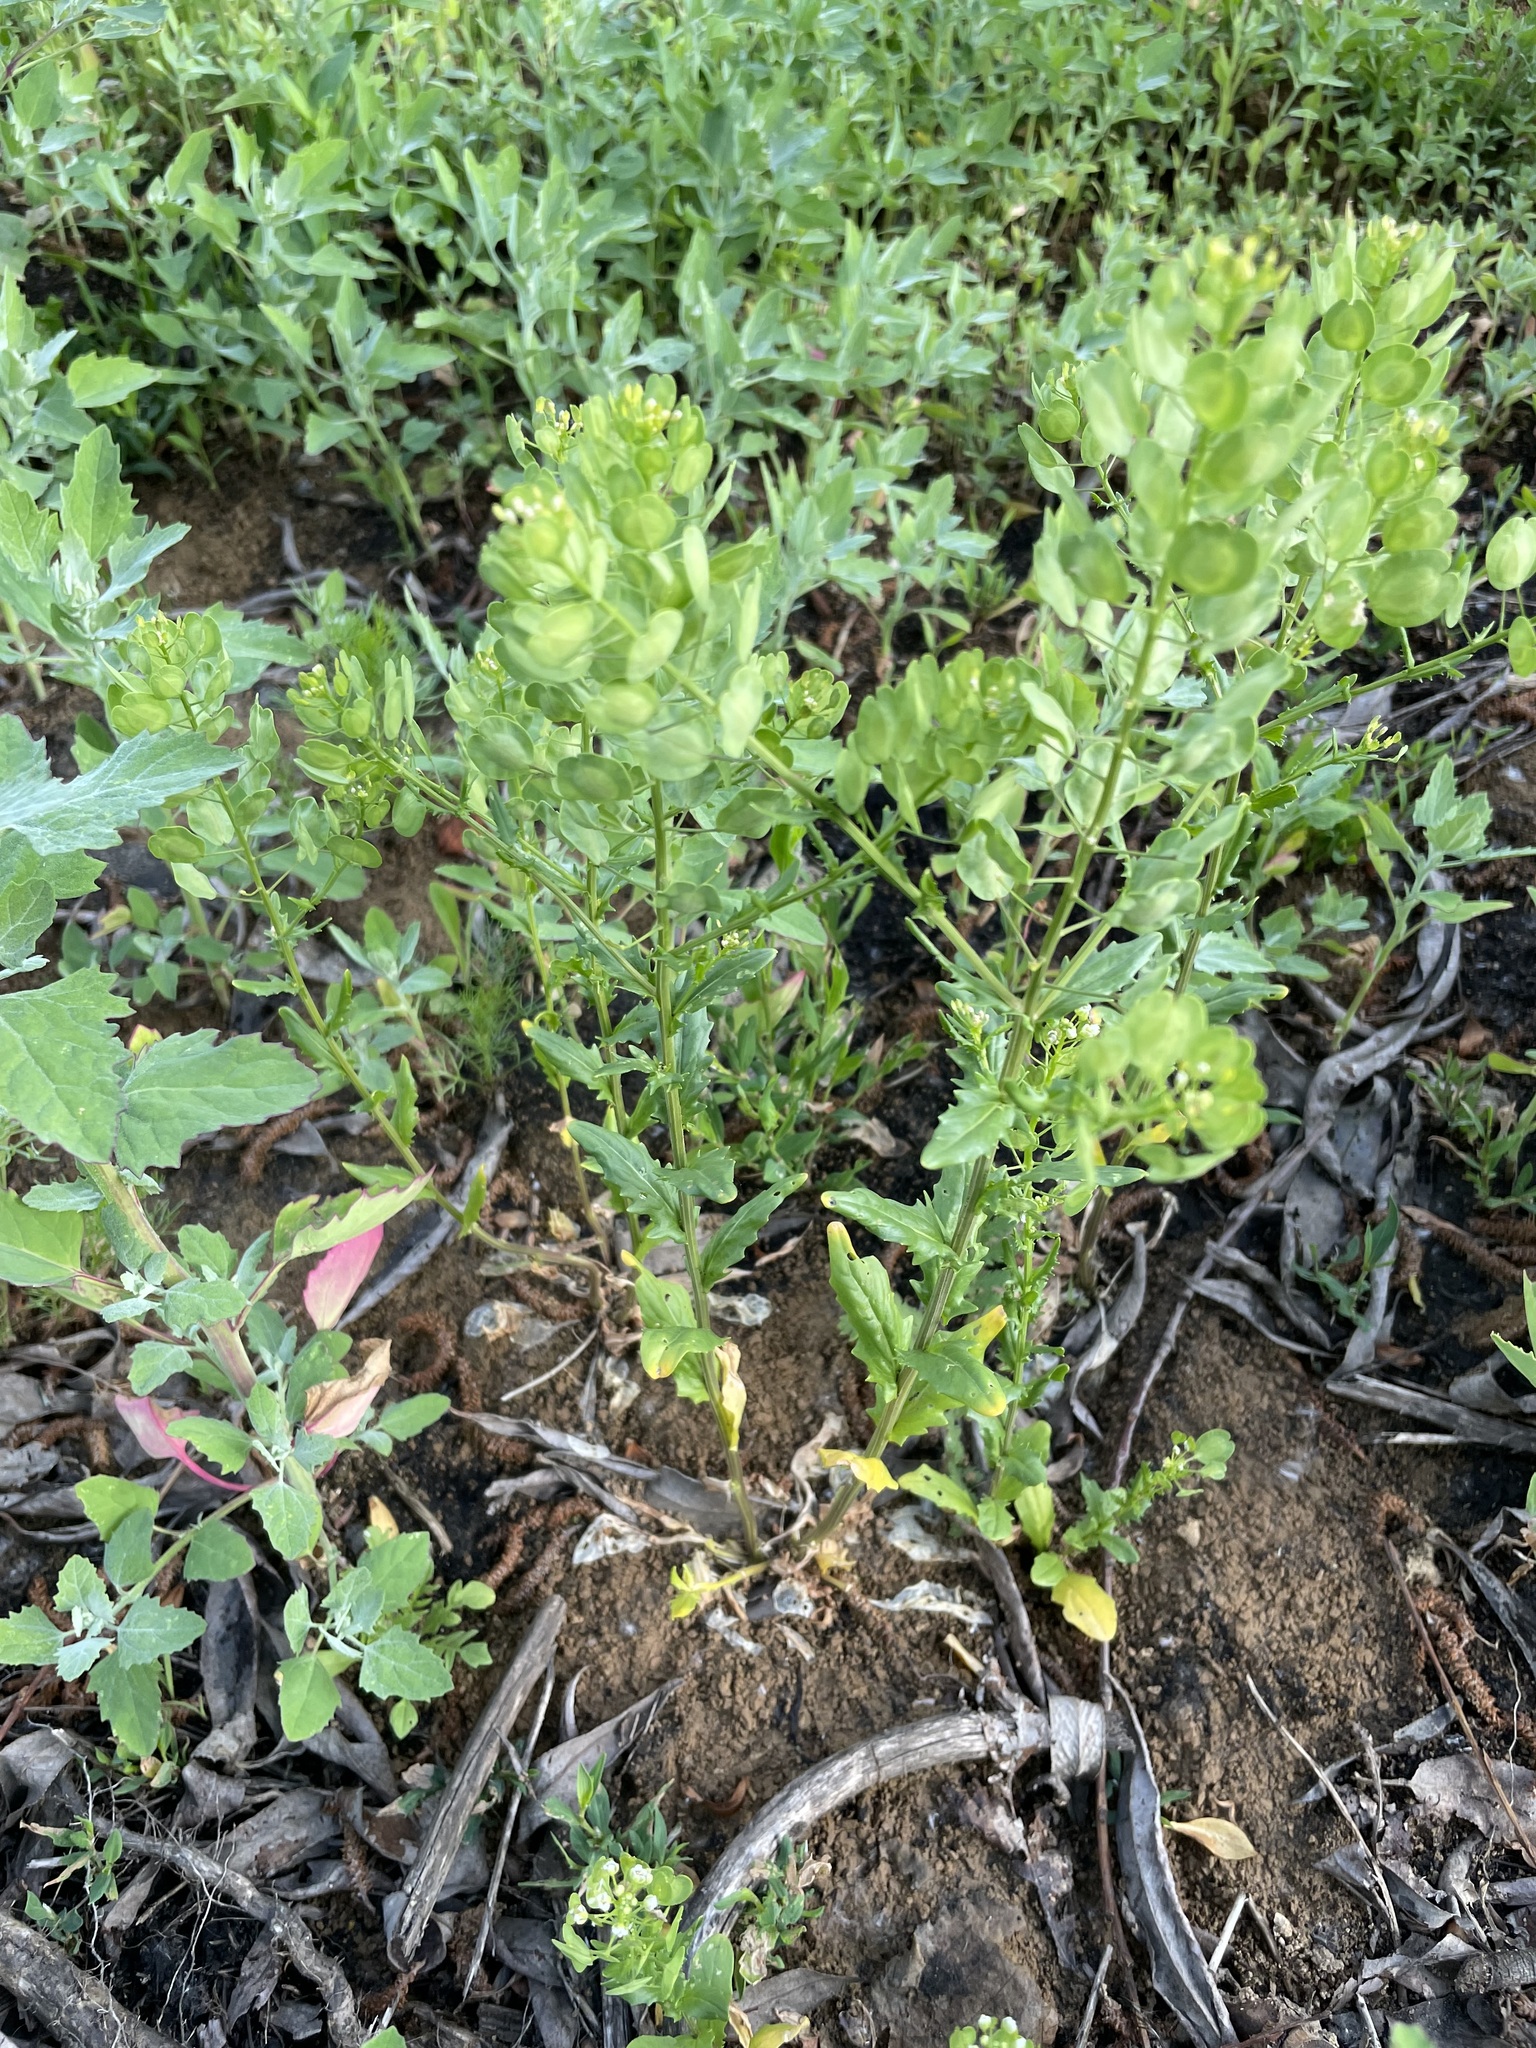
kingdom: Plantae
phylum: Tracheophyta
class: Magnoliopsida
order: Brassicales
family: Brassicaceae
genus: Thlaspi
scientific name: Thlaspi arvense
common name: Field pennycress
